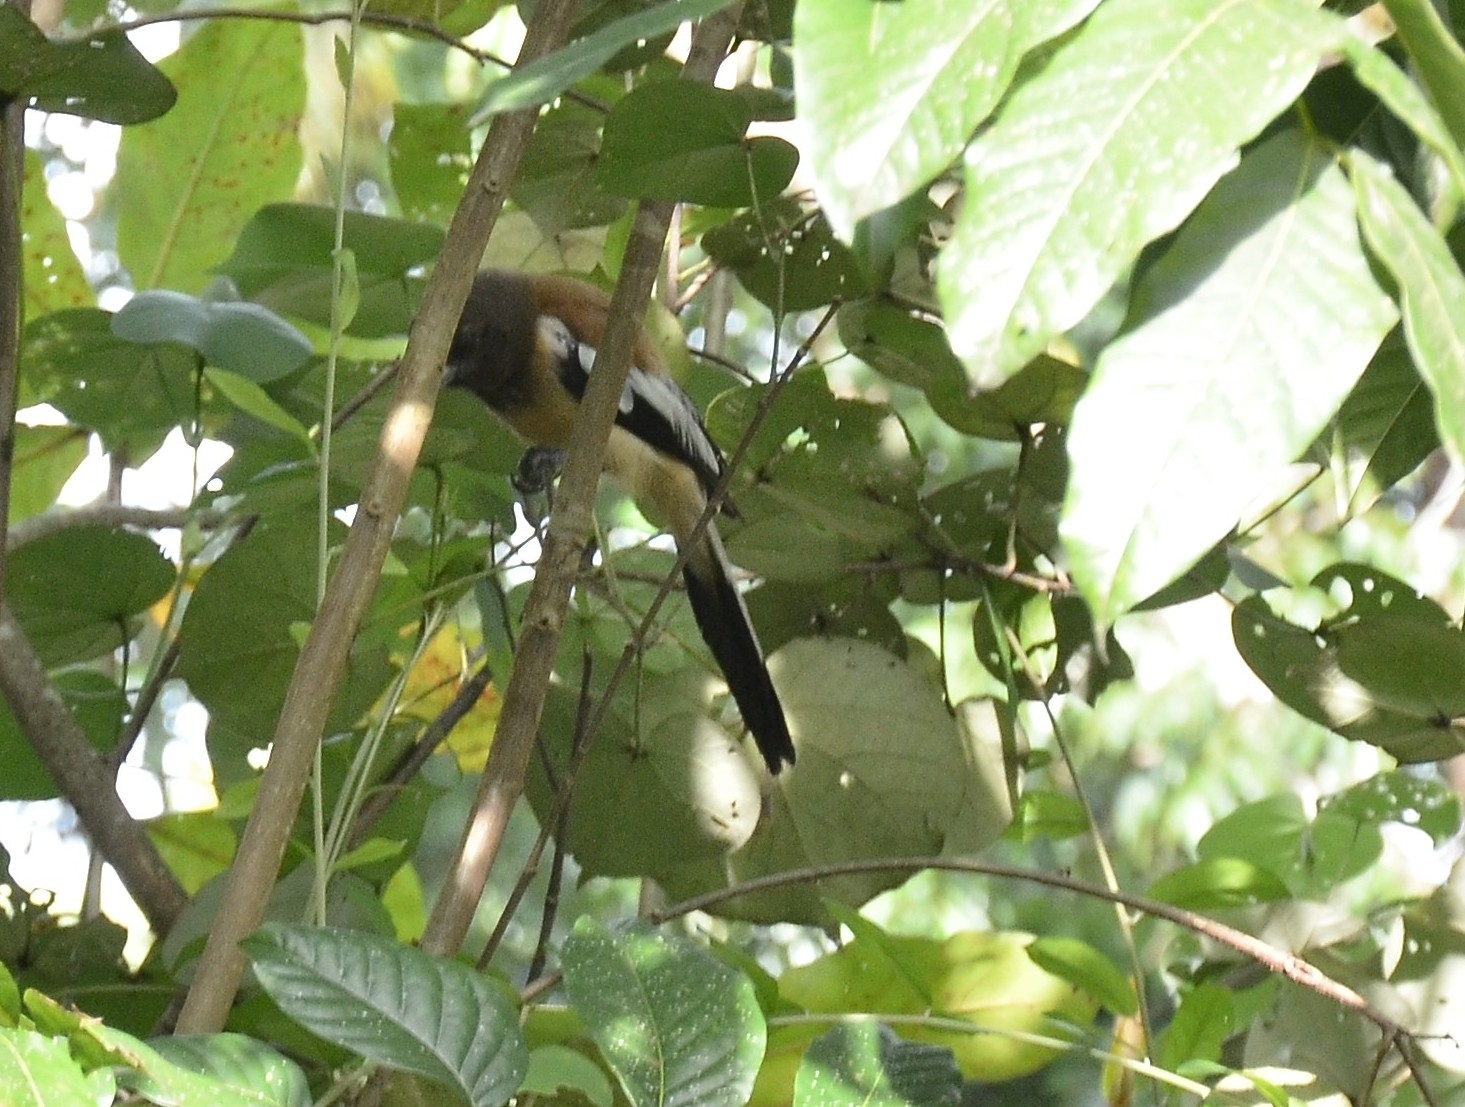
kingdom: Animalia
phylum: Chordata
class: Aves
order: Passeriformes
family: Corvidae
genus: Dendrocitta
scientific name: Dendrocitta vagabunda
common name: Rufous treepie
